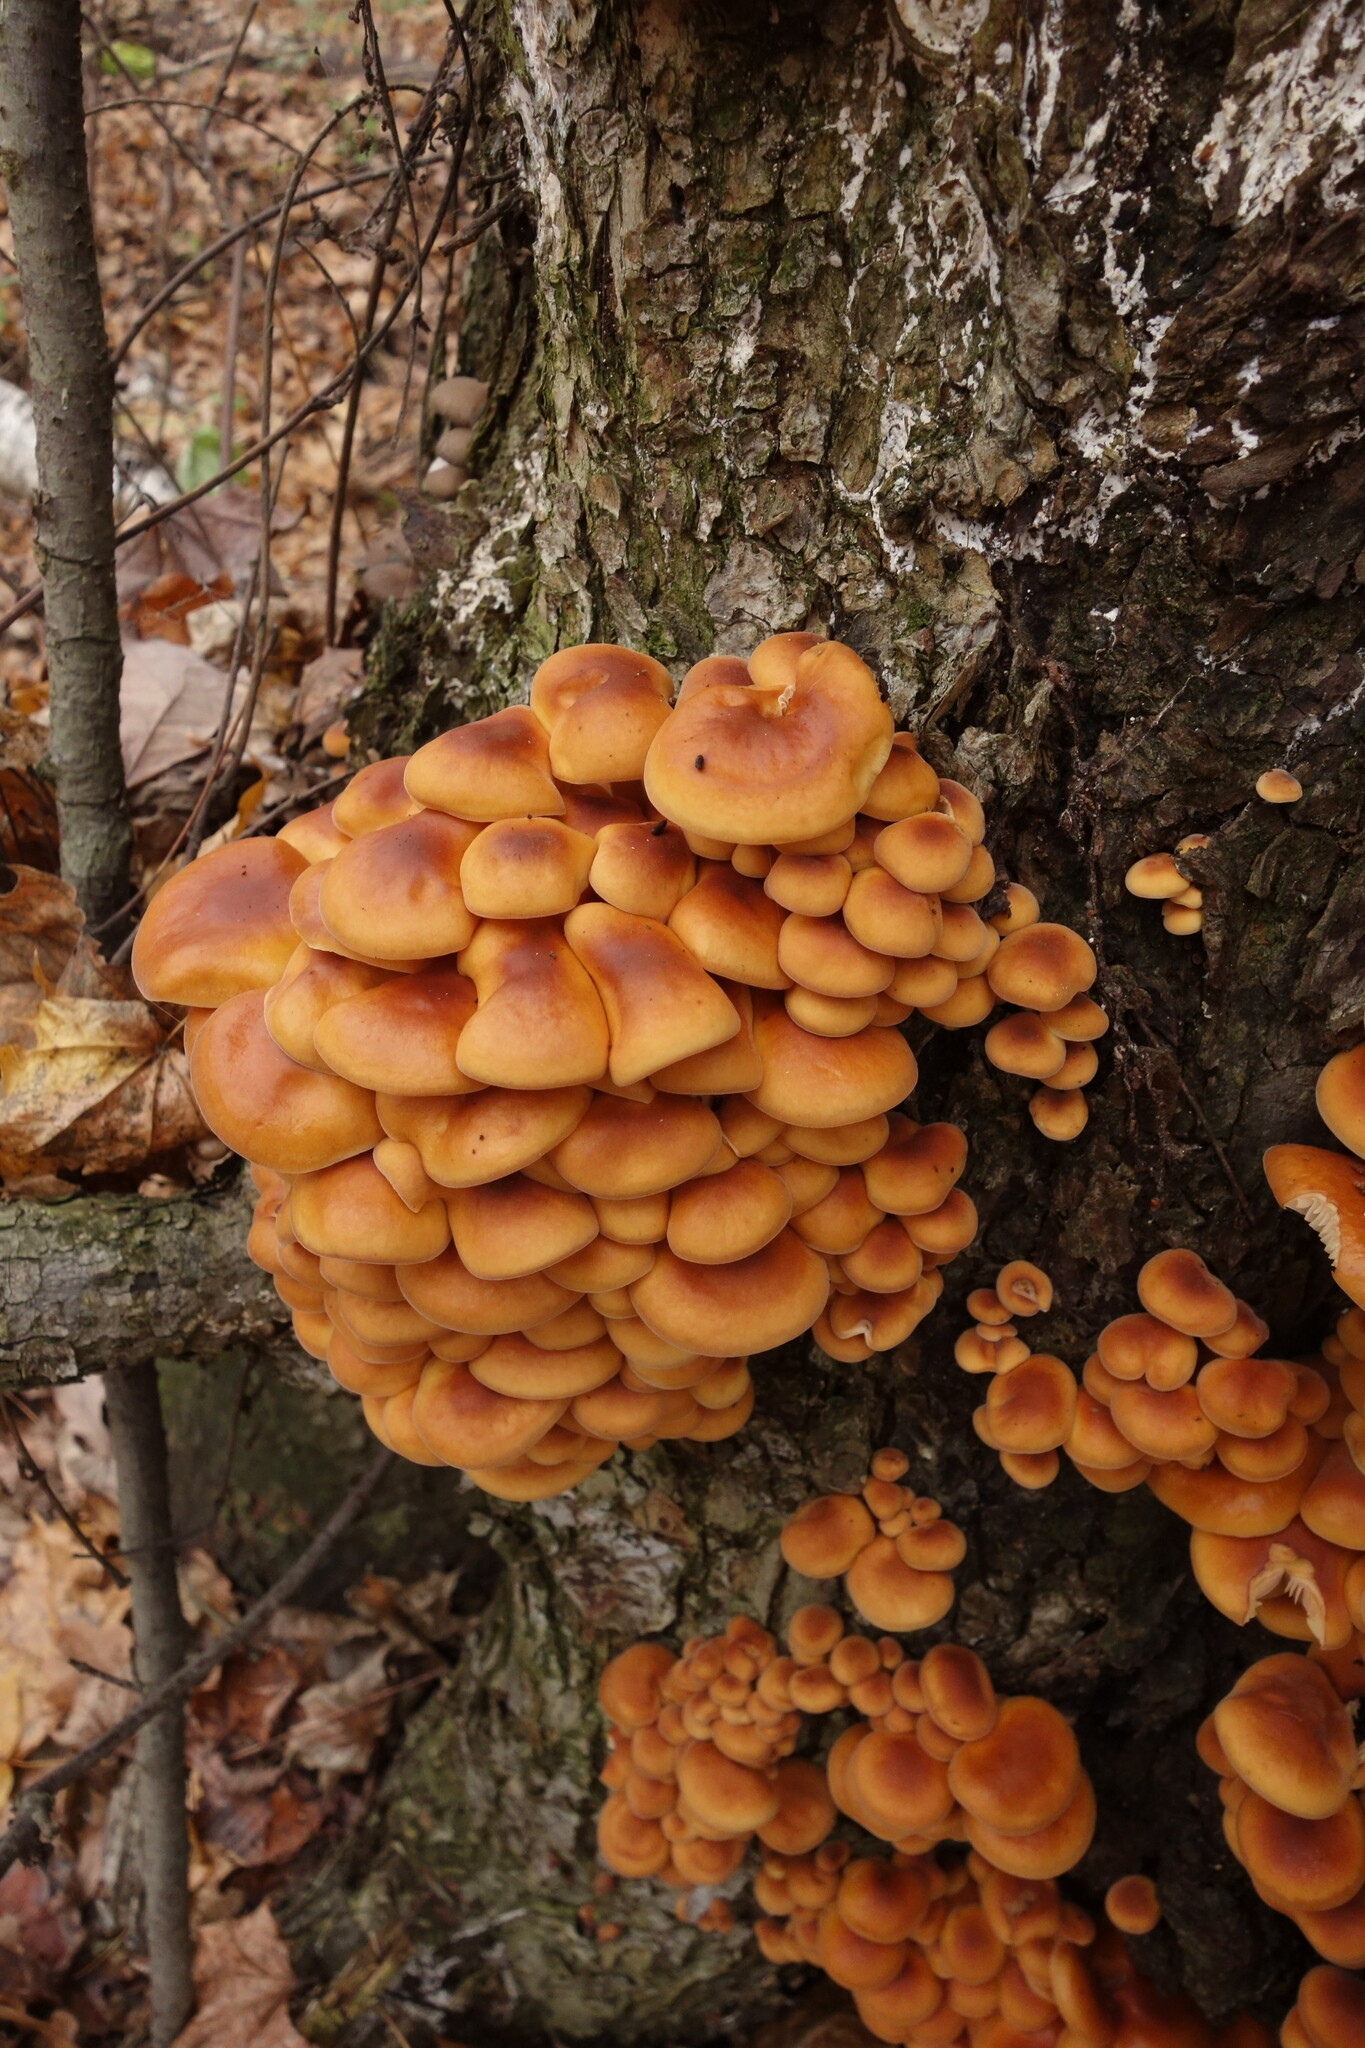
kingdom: Fungi
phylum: Basidiomycota
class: Agaricomycetes
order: Agaricales
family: Physalacriaceae
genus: Flammulina
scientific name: Flammulina
